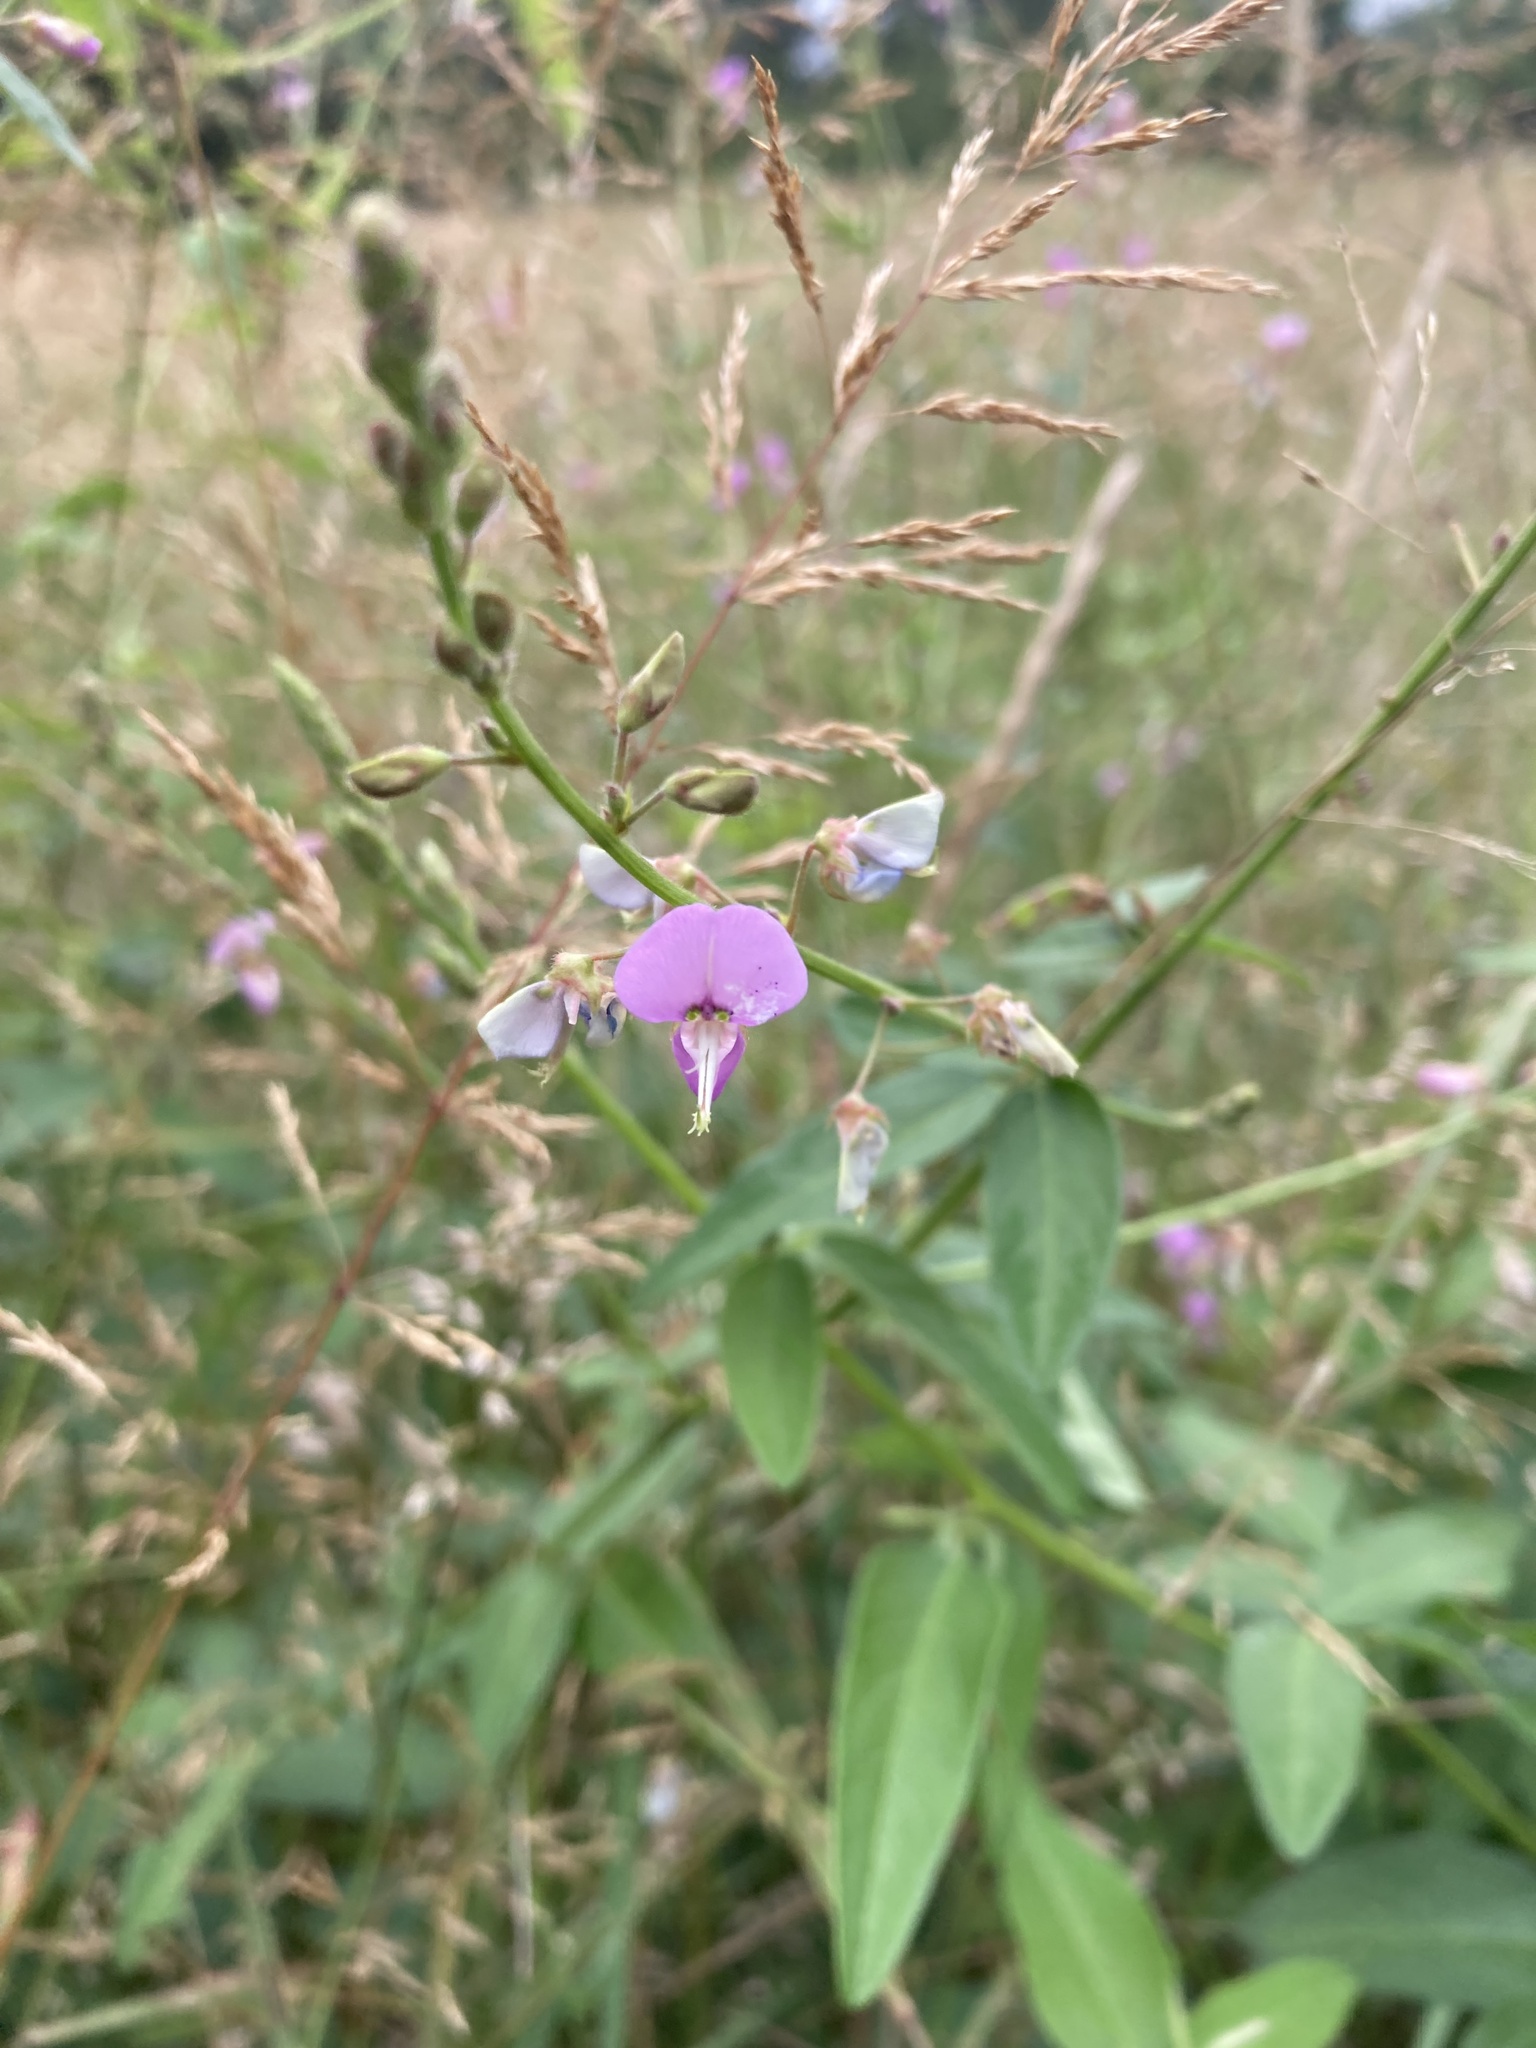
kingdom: Plantae
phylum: Tracheophyta
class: Magnoliopsida
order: Fabales
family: Fabaceae
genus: Desmodium
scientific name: Desmodium paniculatum
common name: Panicled tick-clover
